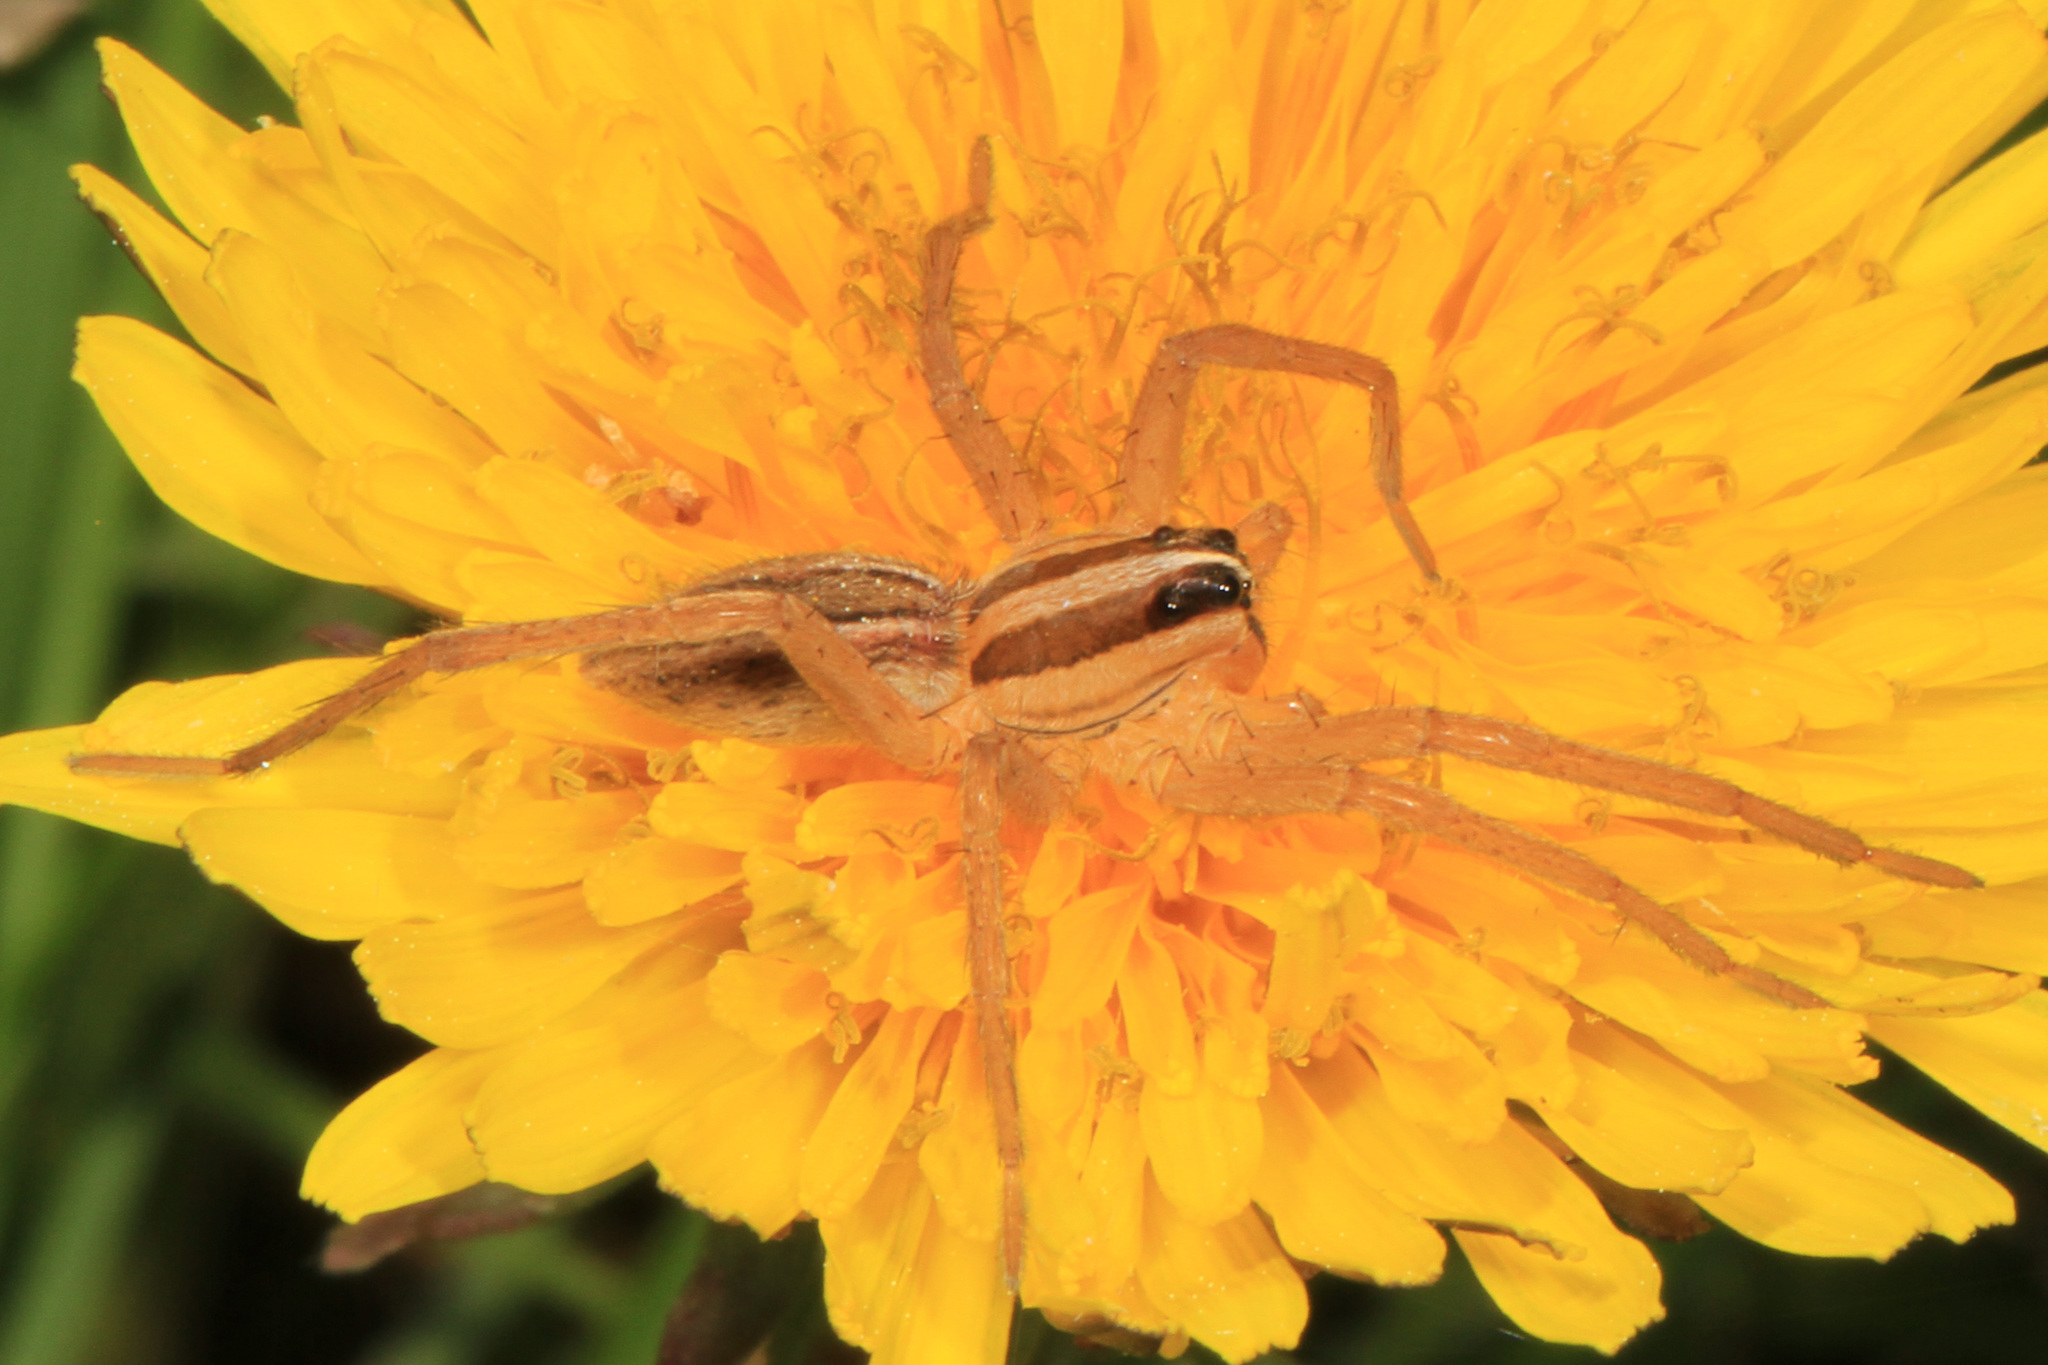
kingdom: Animalia
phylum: Arthropoda
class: Arachnida
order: Araneae
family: Lycosidae
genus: Rabidosa
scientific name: Rabidosa rabida
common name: Rabid wolf spider
